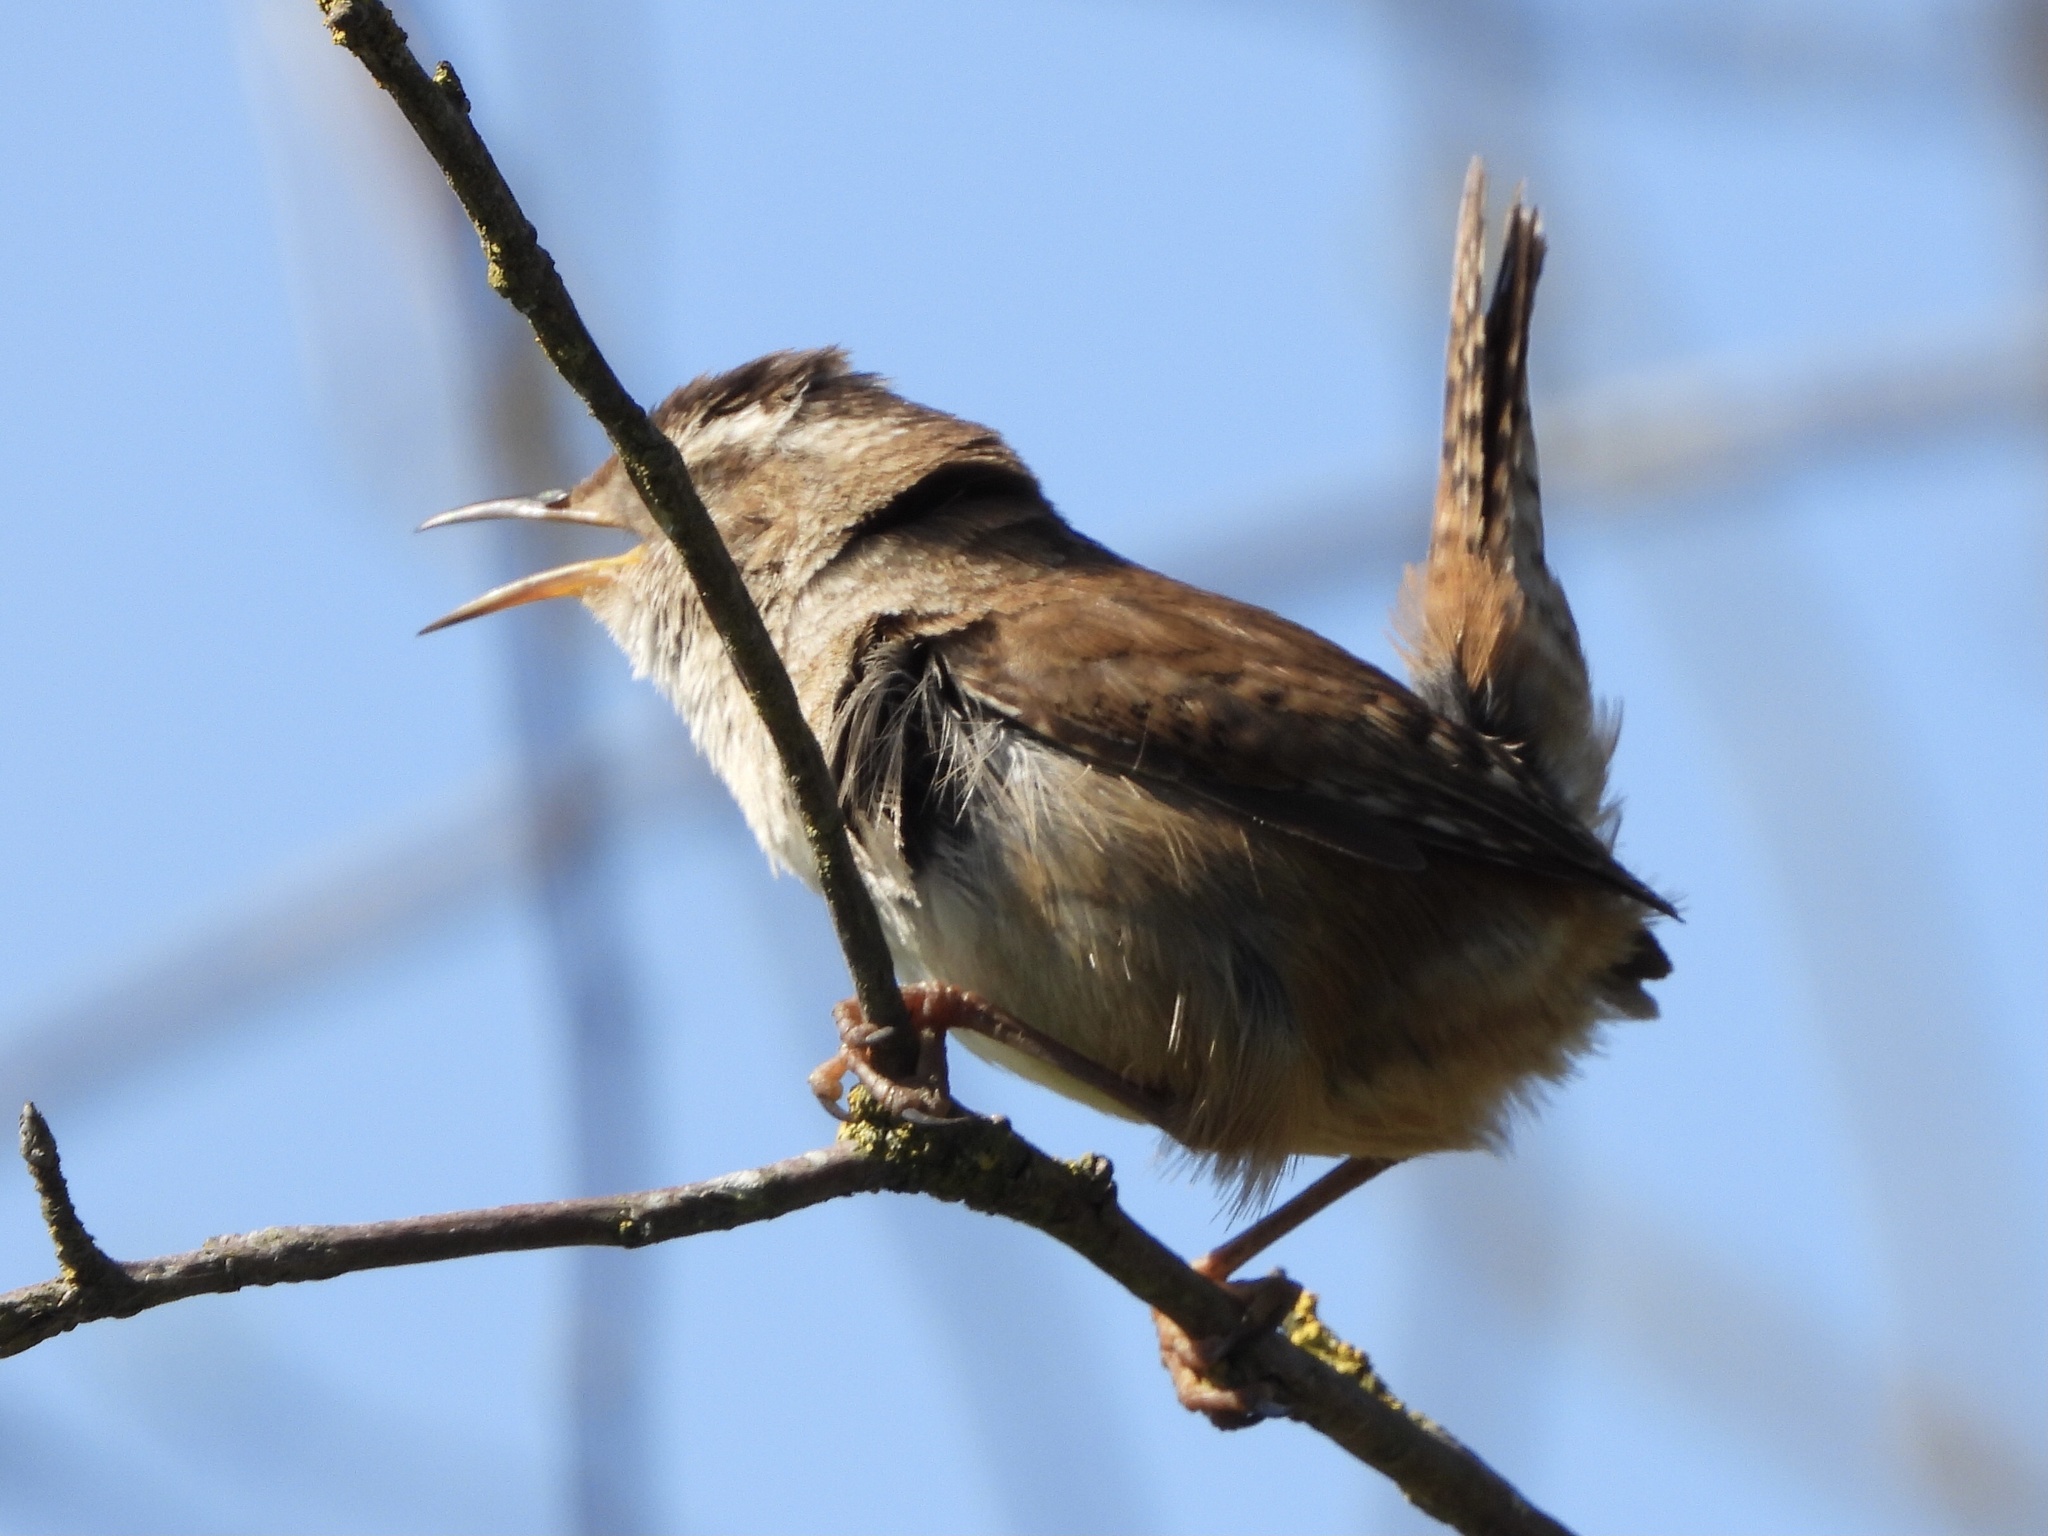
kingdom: Animalia
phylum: Chordata
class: Aves
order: Passeriformes
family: Troglodytidae
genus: Cistothorus
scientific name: Cistothorus palustris
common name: Marsh wren
